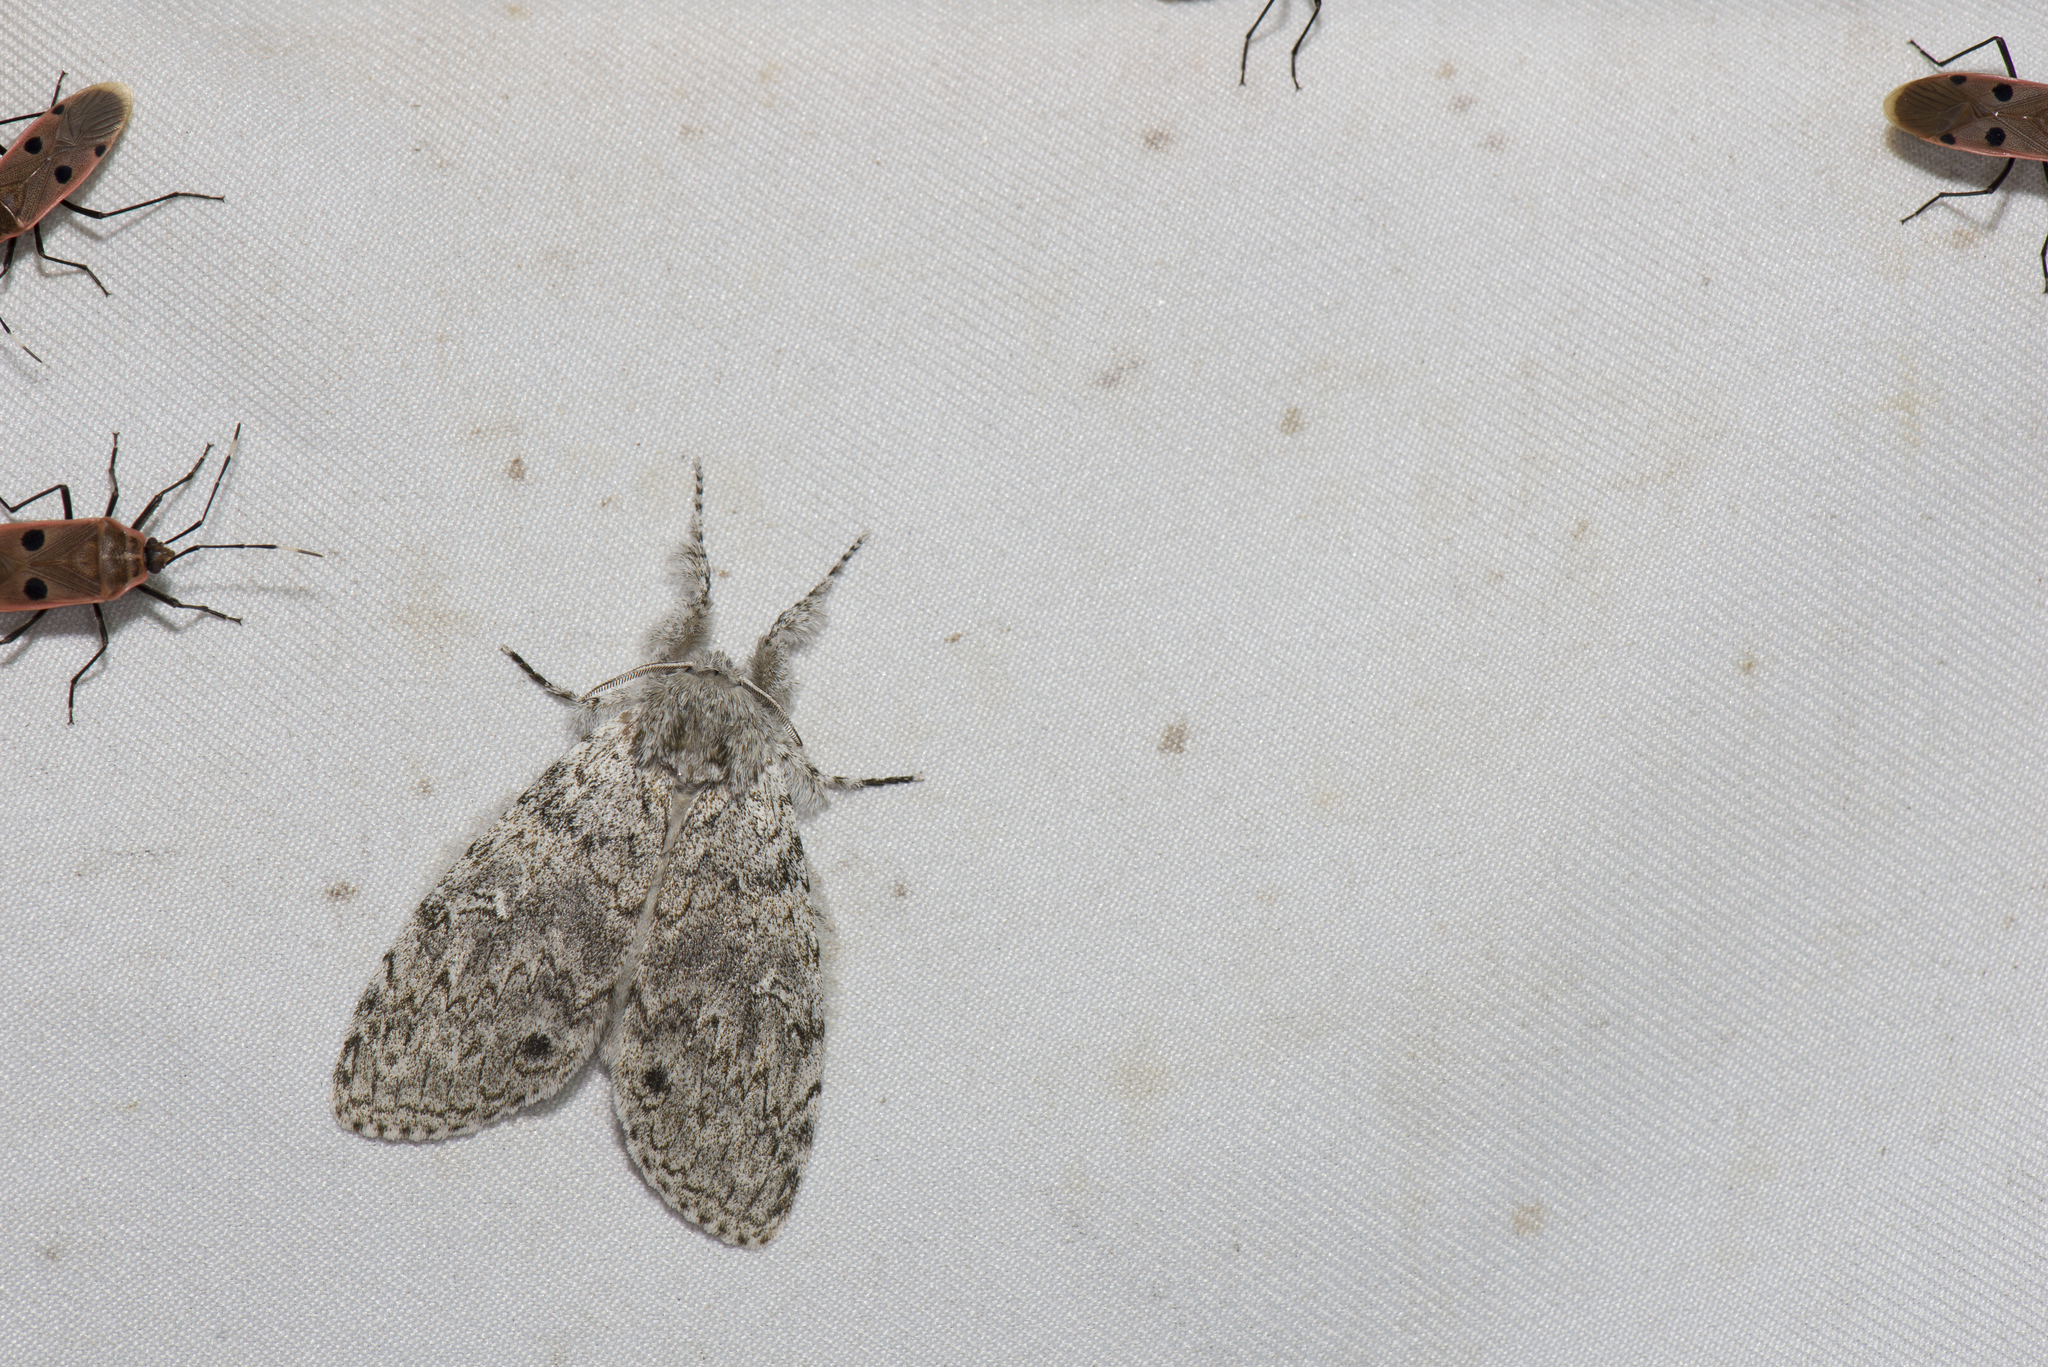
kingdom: Animalia
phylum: Arthropoda
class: Insecta
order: Lepidoptera
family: Erebidae
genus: Calliteara
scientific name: Calliteara arizana
